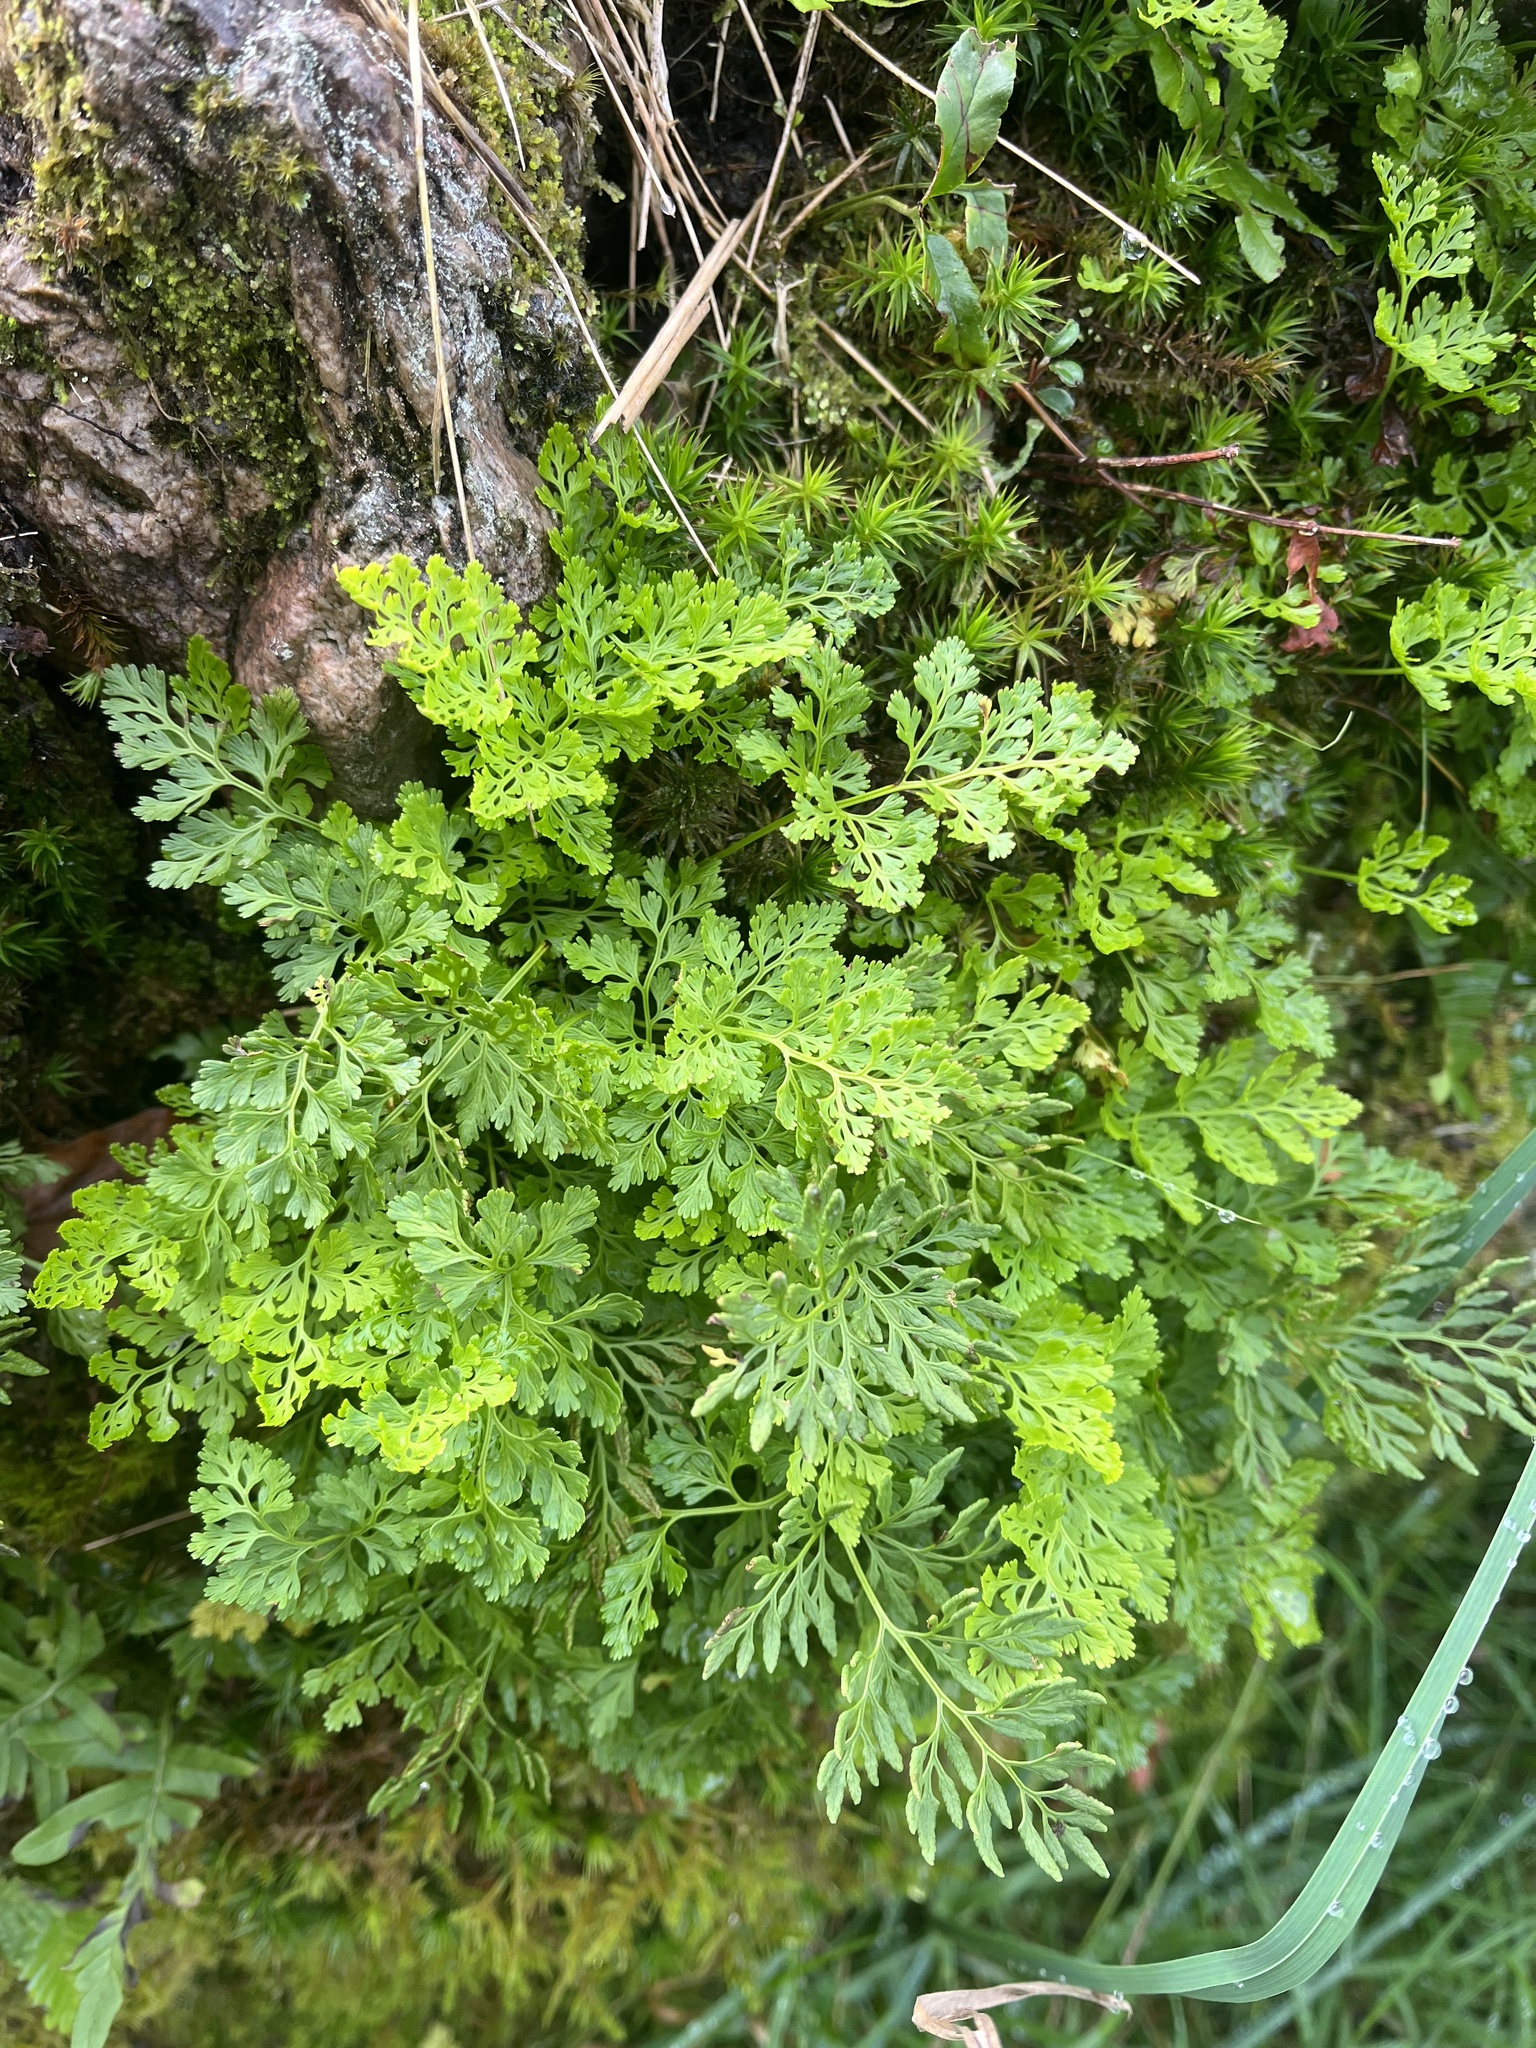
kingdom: Plantae
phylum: Tracheophyta
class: Polypodiopsida
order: Polypodiales
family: Pteridaceae
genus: Cryptogramma
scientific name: Cryptogramma crispa
